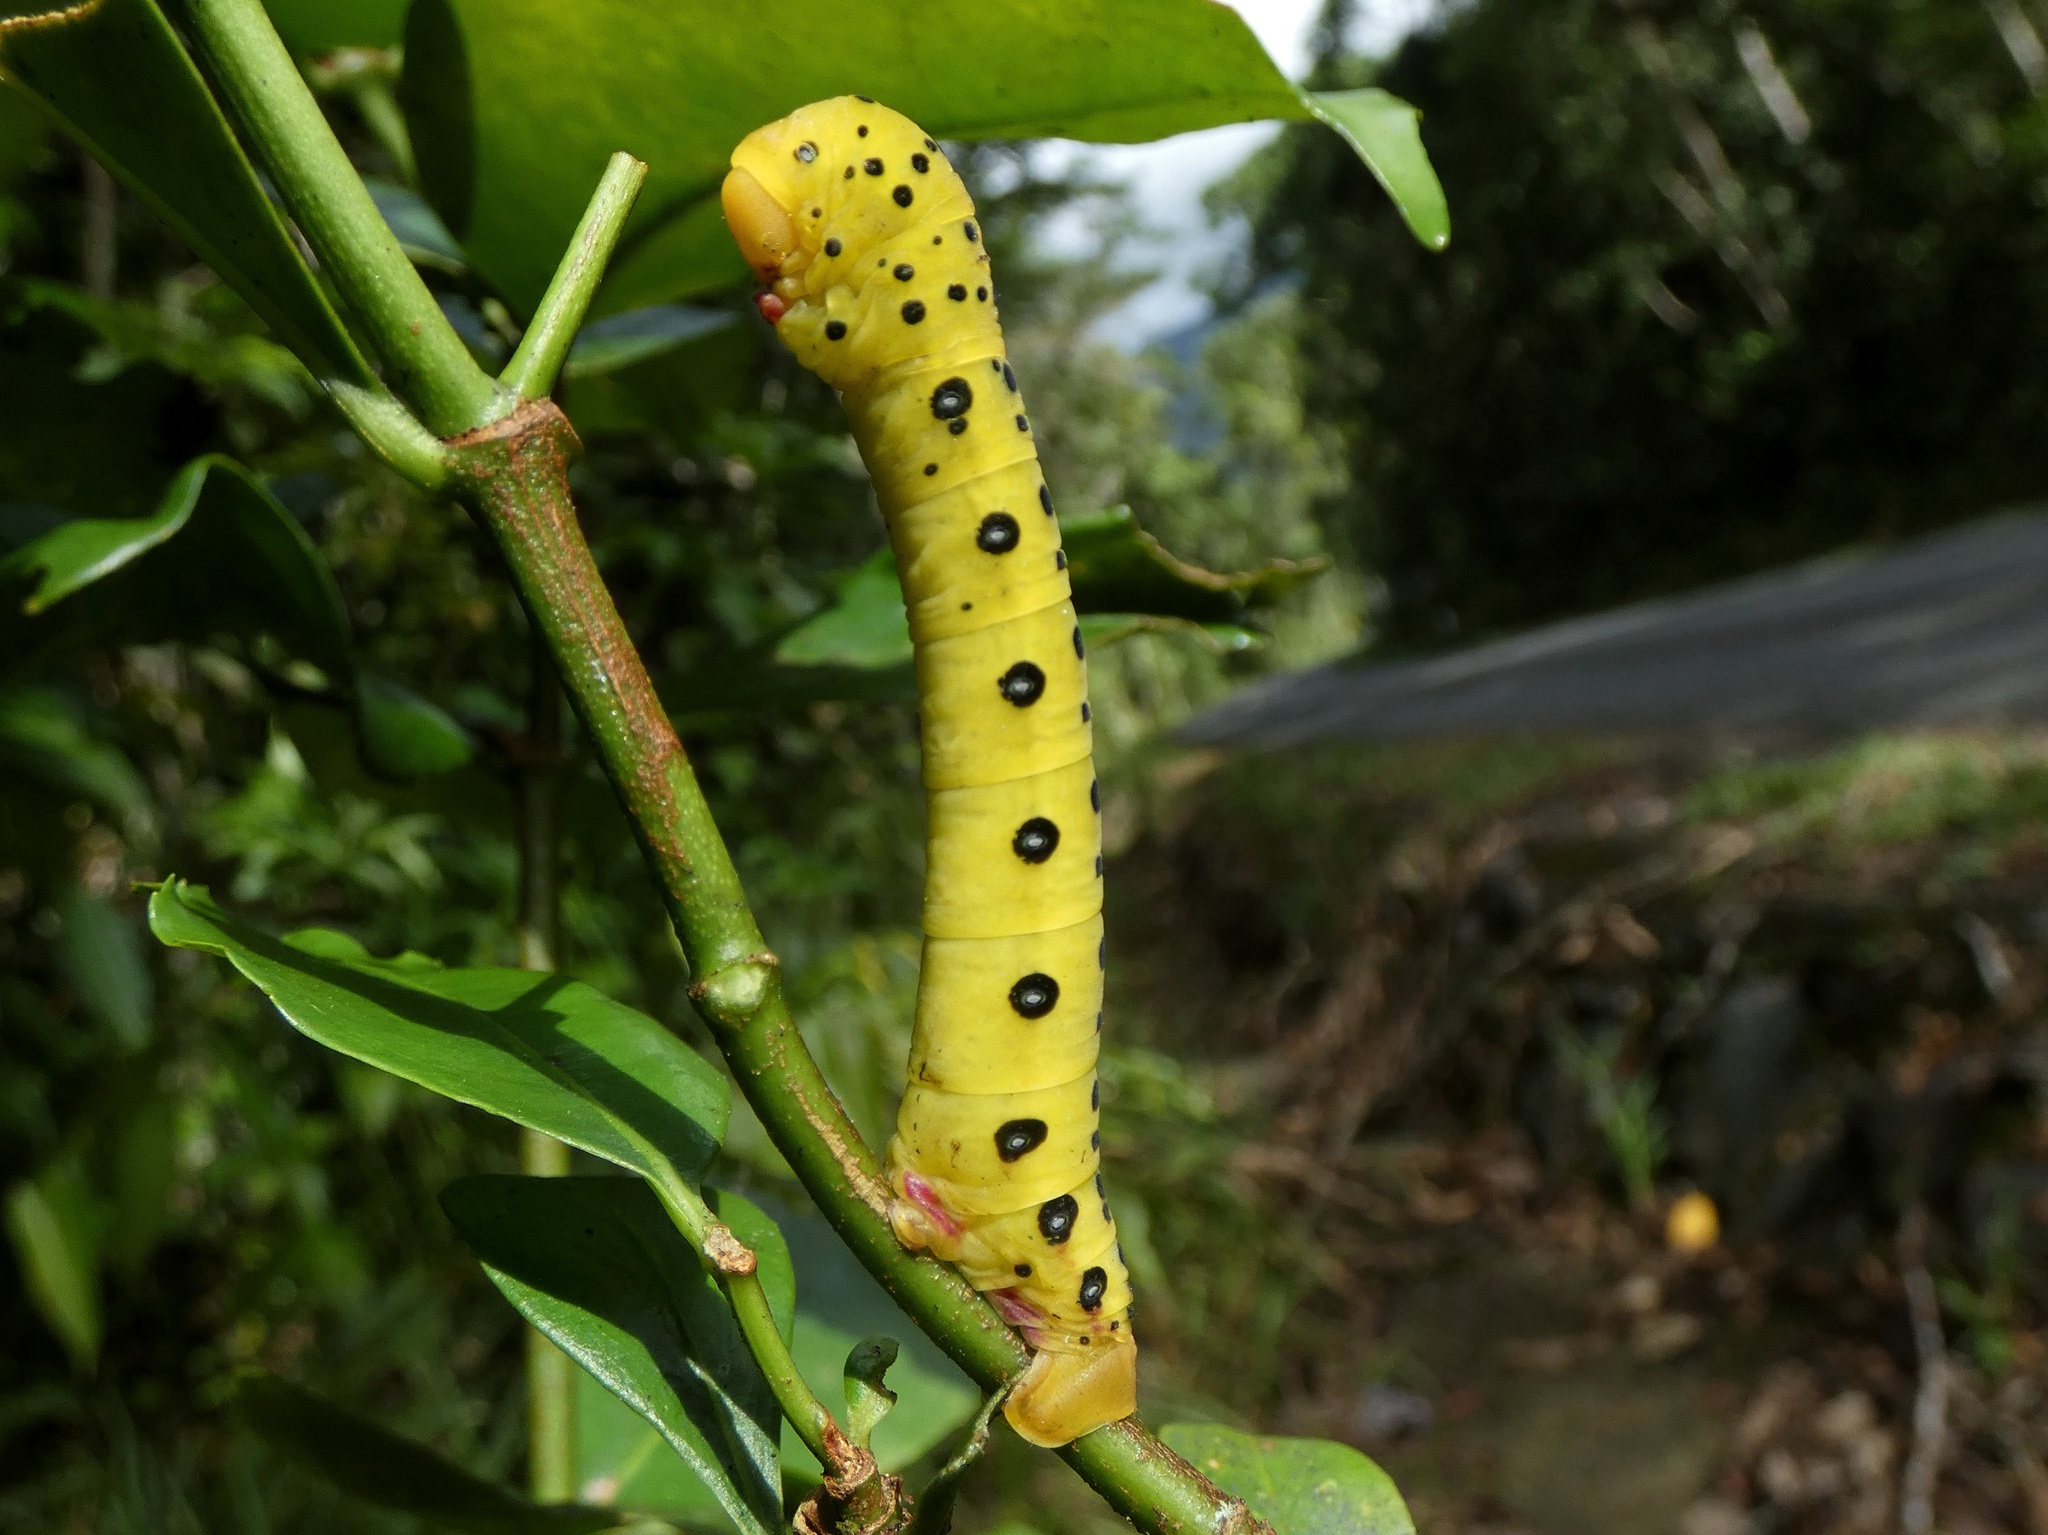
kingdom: Animalia
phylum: Arthropoda
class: Insecta
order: Lepidoptera
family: Geometridae
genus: Dysphania
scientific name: Dysphania numana
